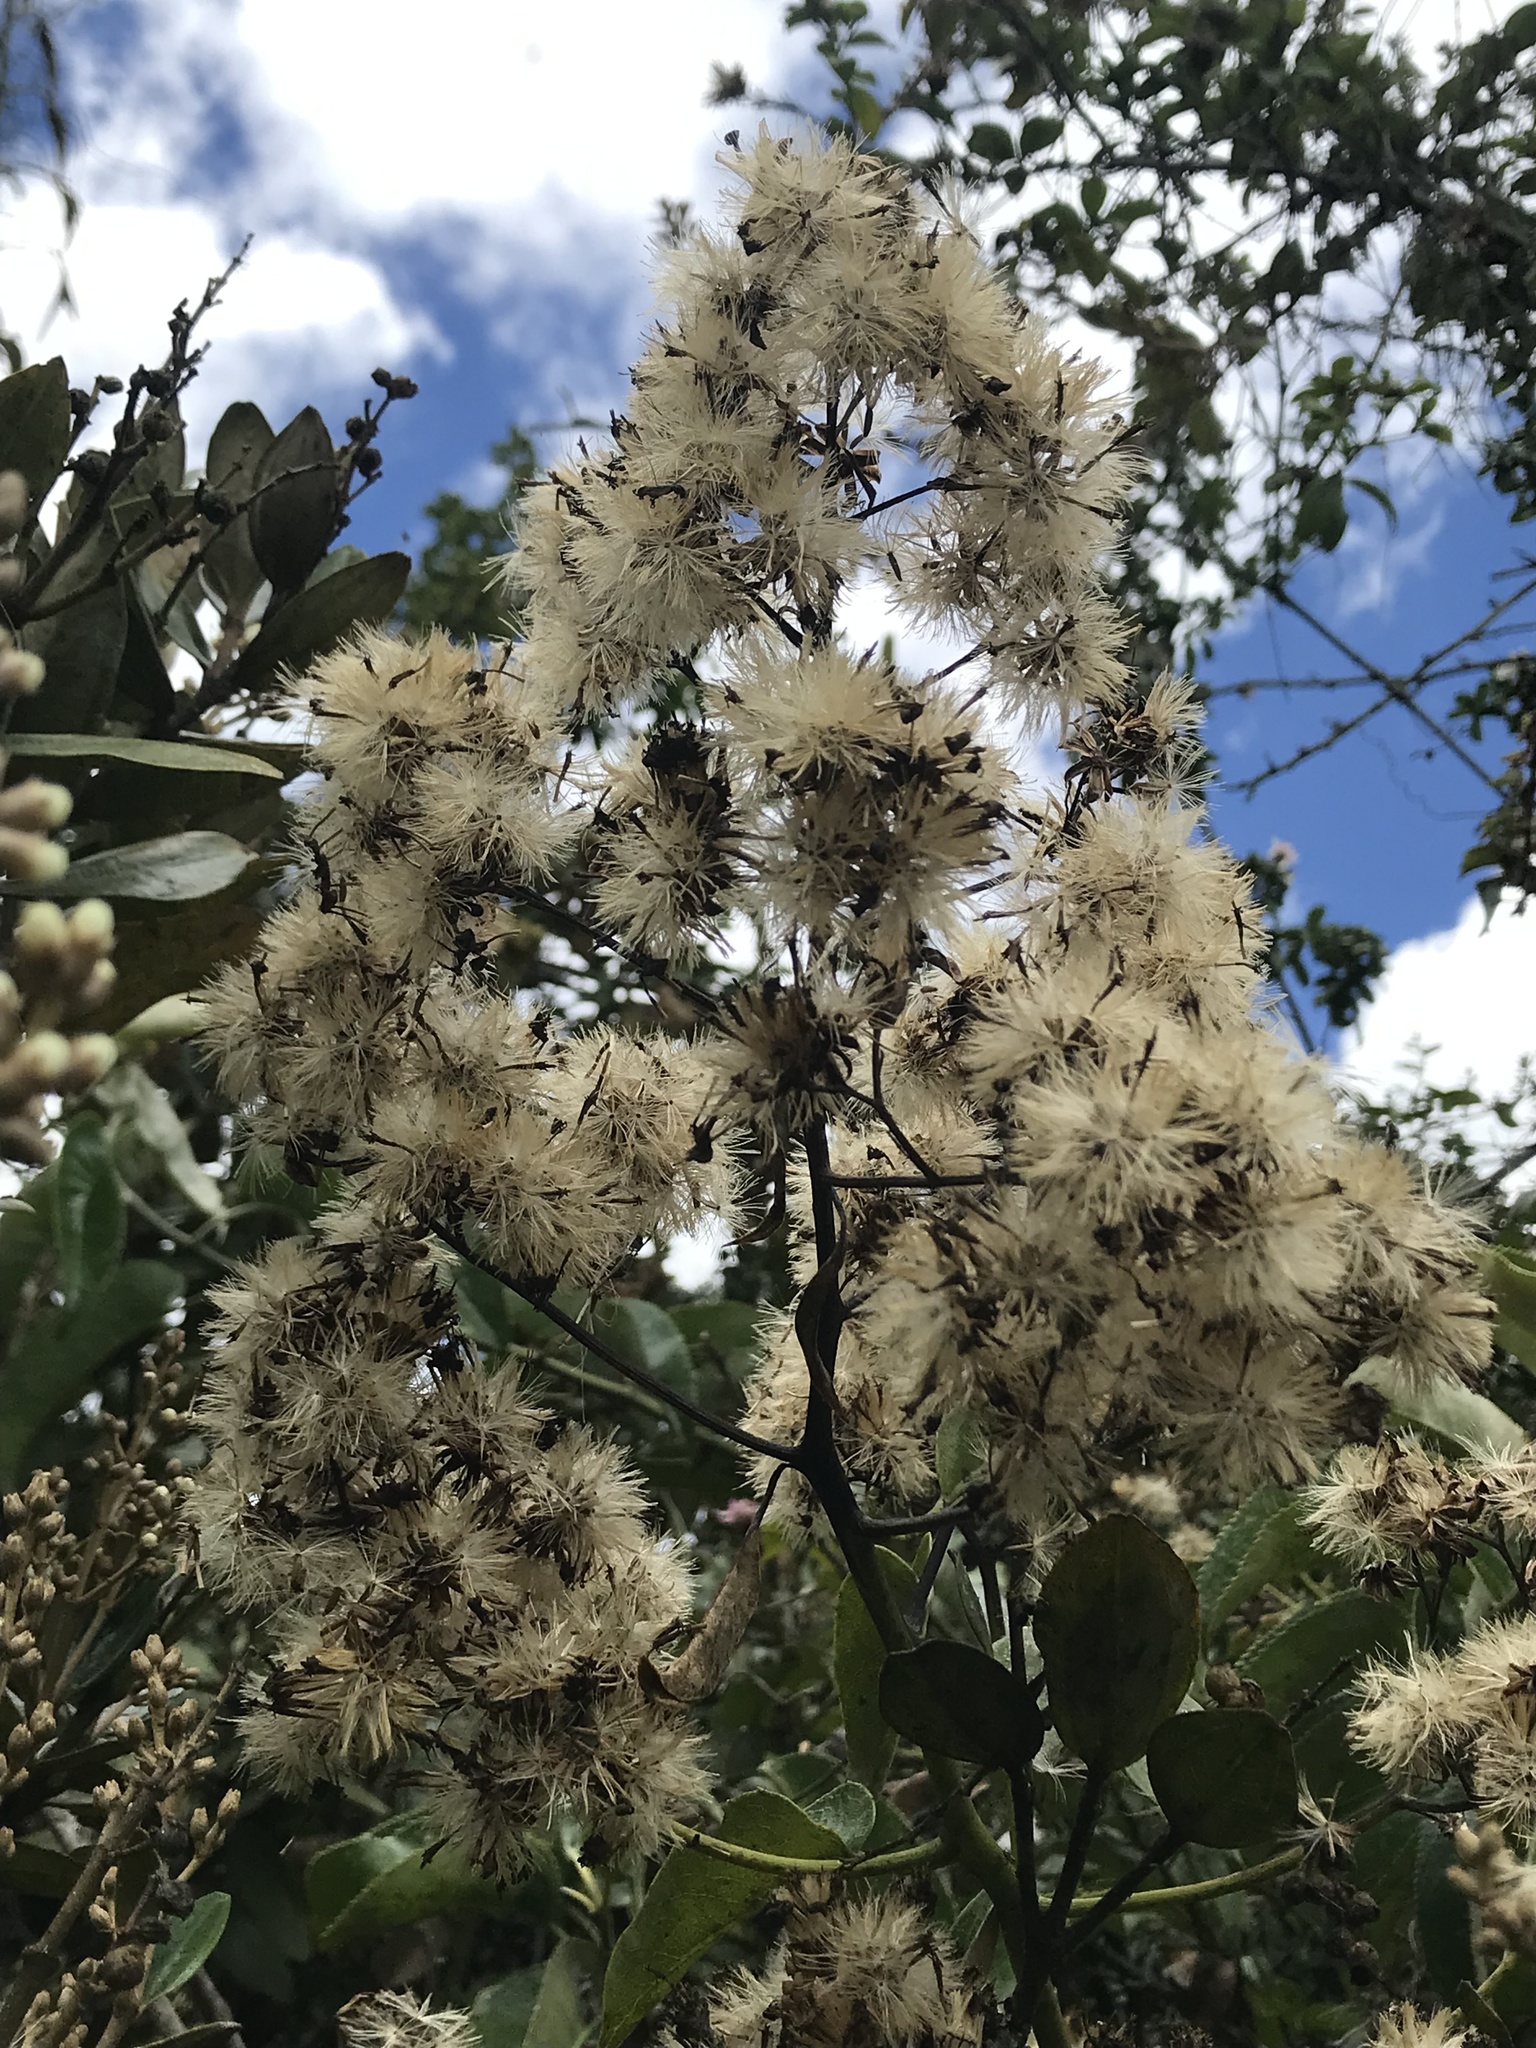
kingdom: Plantae
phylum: Tracheophyta
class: Magnoliopsida
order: Asterales
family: Asteraceae
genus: Dendrophorbium
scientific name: Dendrophorbium americanum
